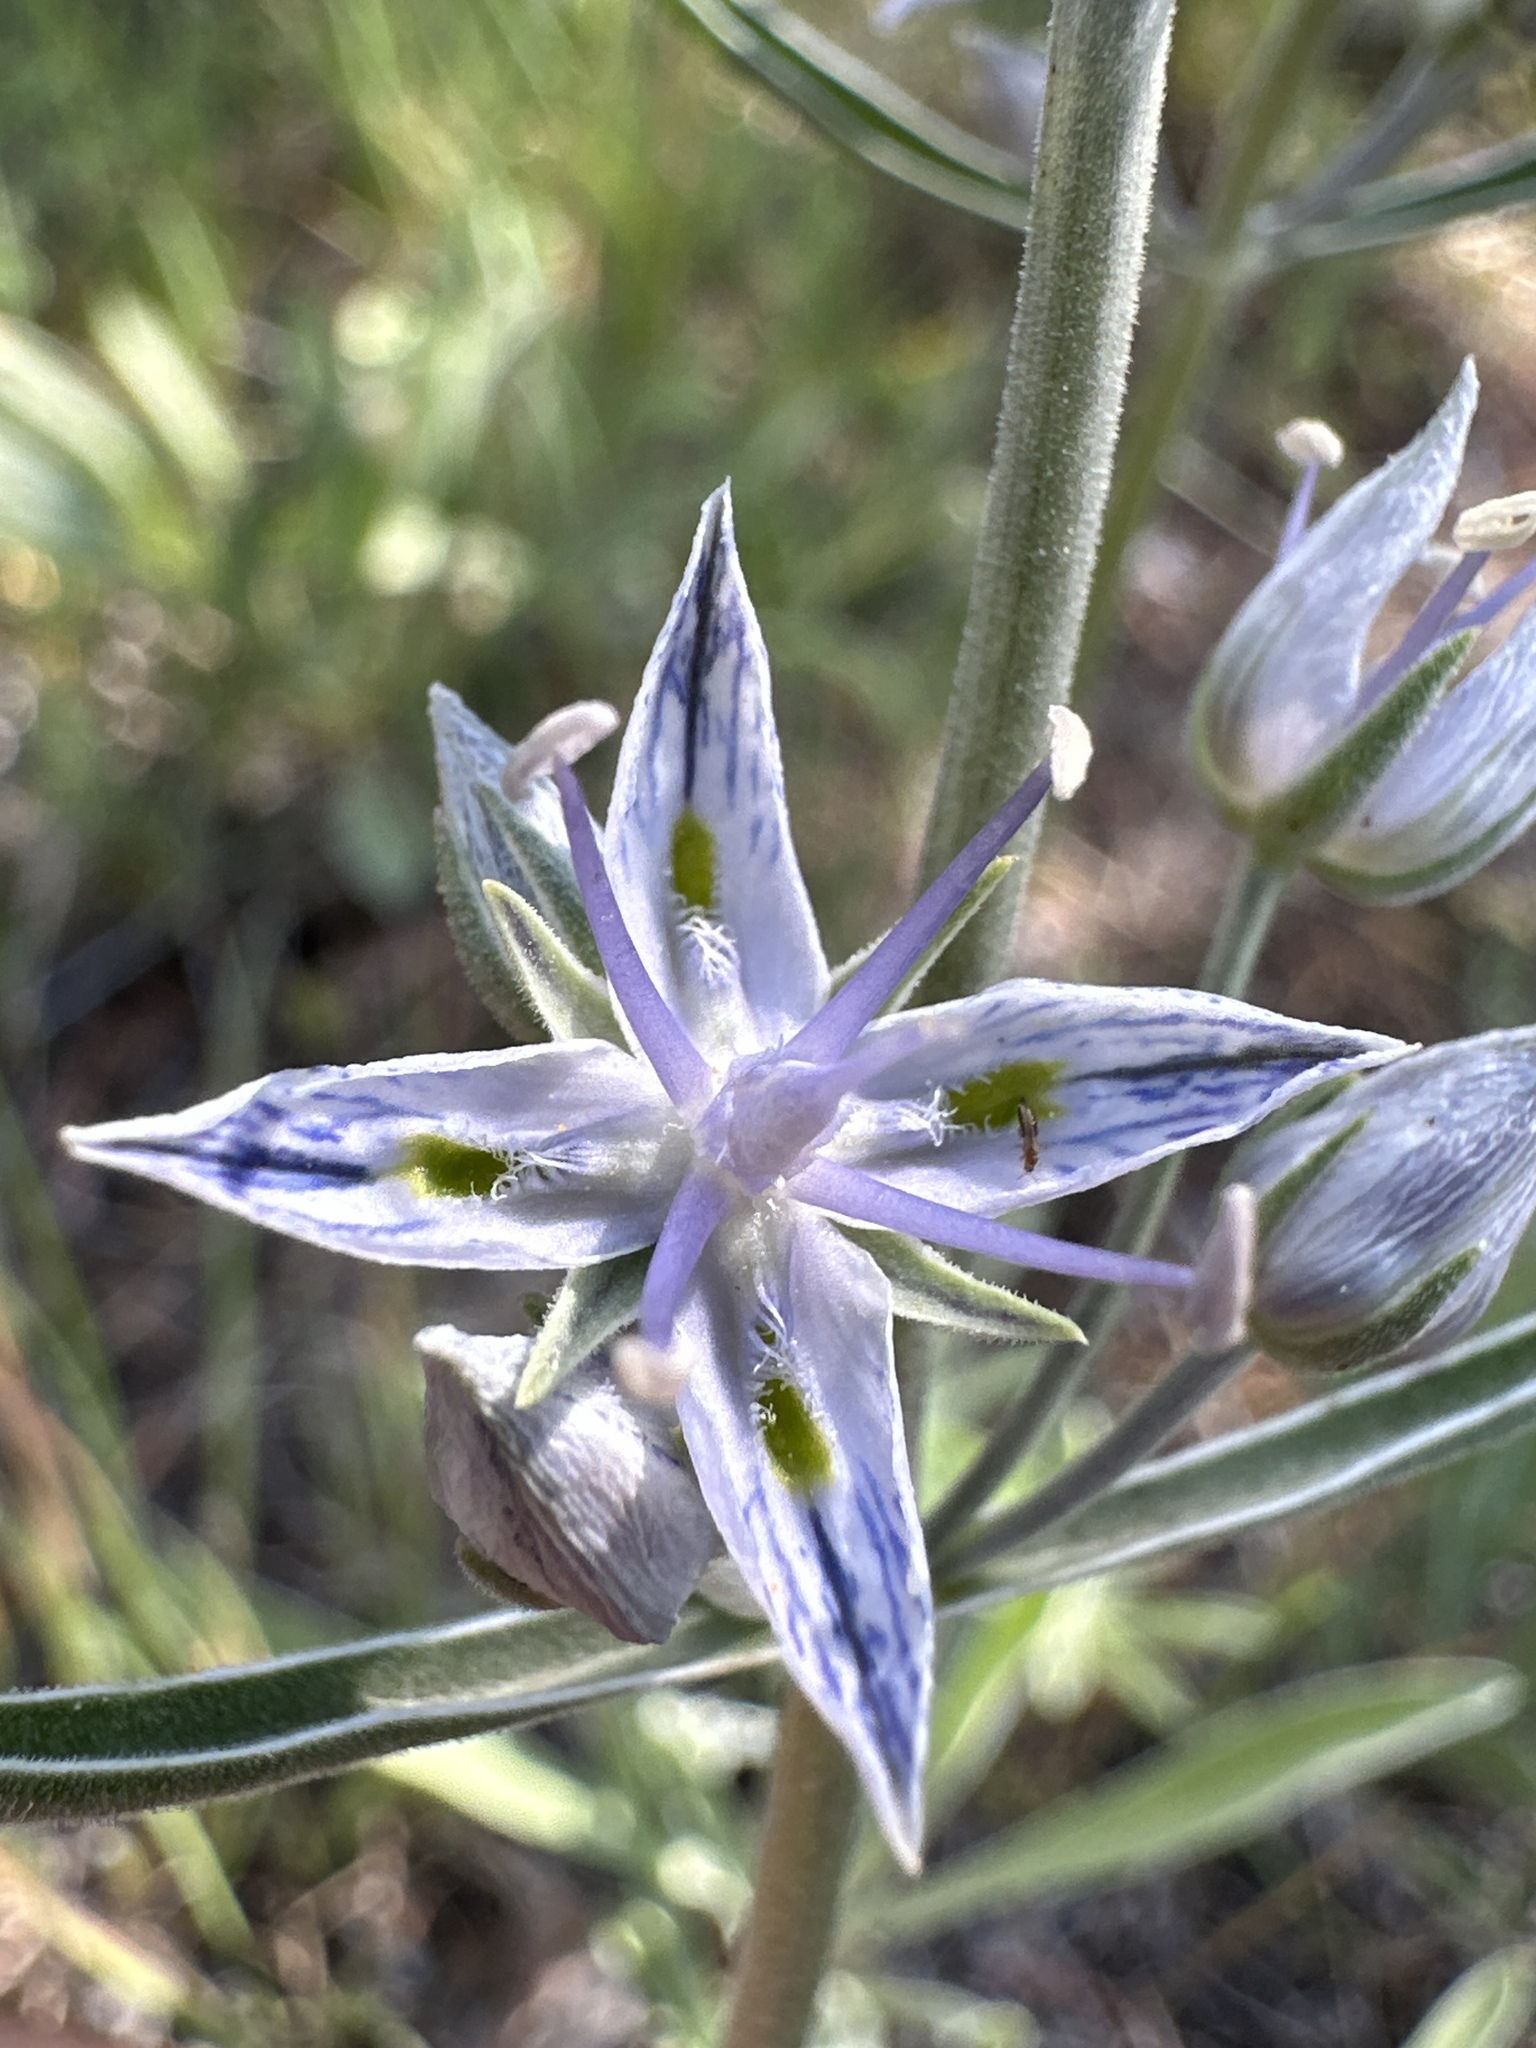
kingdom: Plantae
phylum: Tracheophyta
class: Magnoliopsida
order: Gentianales
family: Gentianaceae
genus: Frasera
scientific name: Frasera albicaulis
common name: Cusick's frasera
